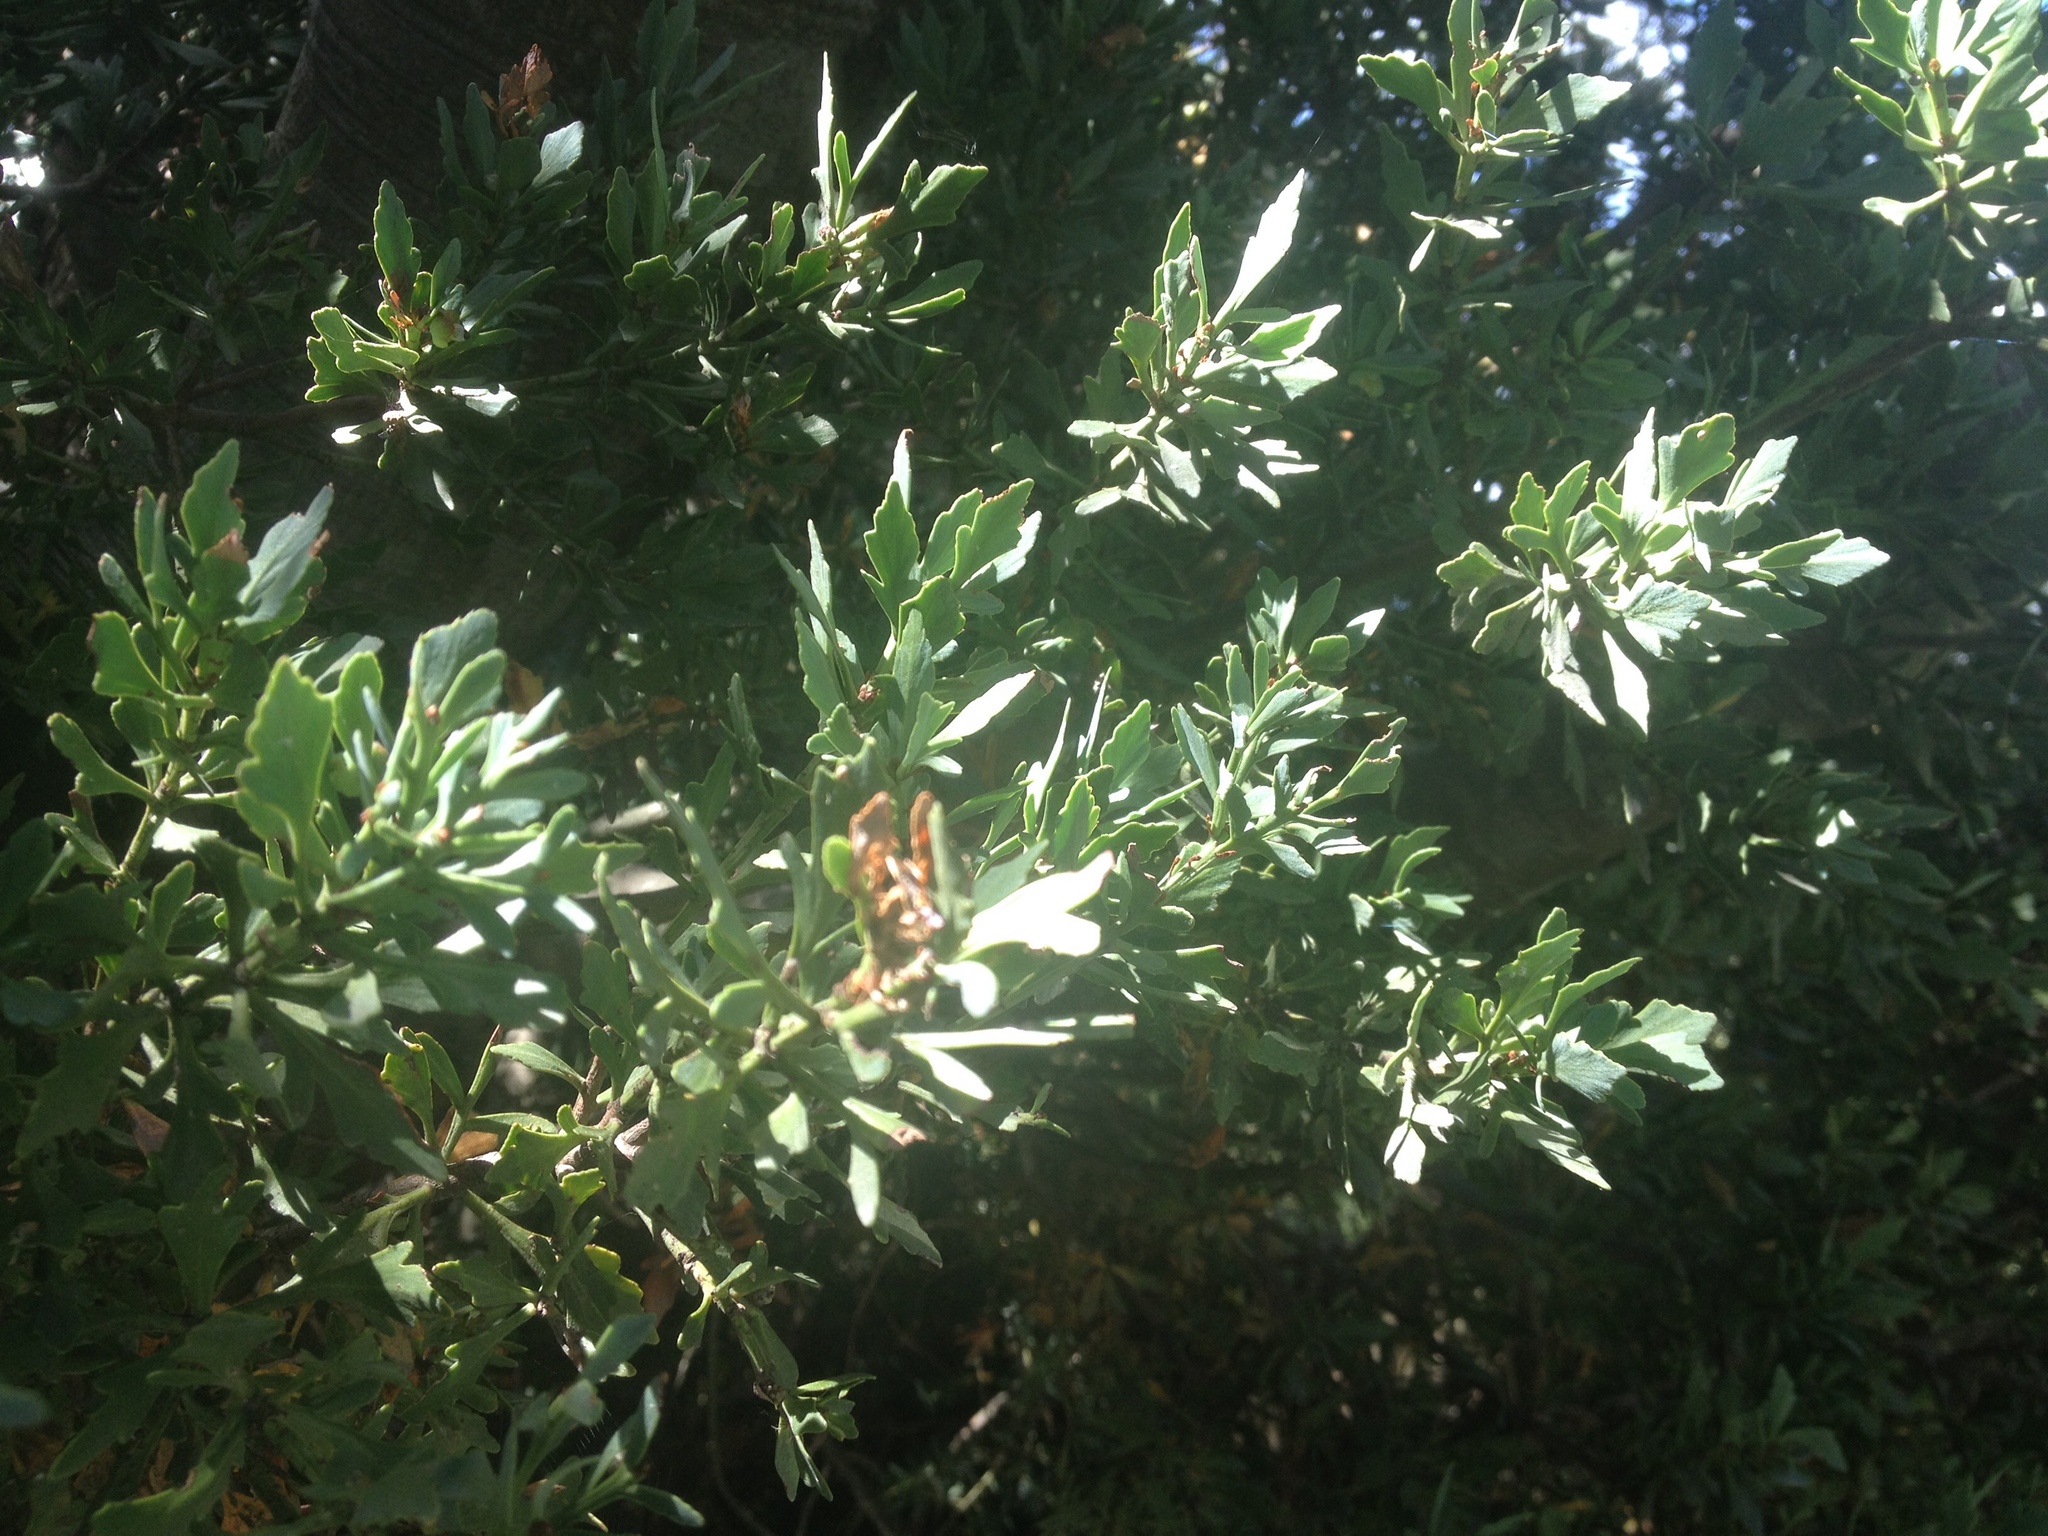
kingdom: Plantae
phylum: Tracheophyta
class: Pinopsida
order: Pinales
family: Phyllocladaceae
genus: Phyllocladus
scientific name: Phyllocladus trichomanoides
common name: Celery pine
